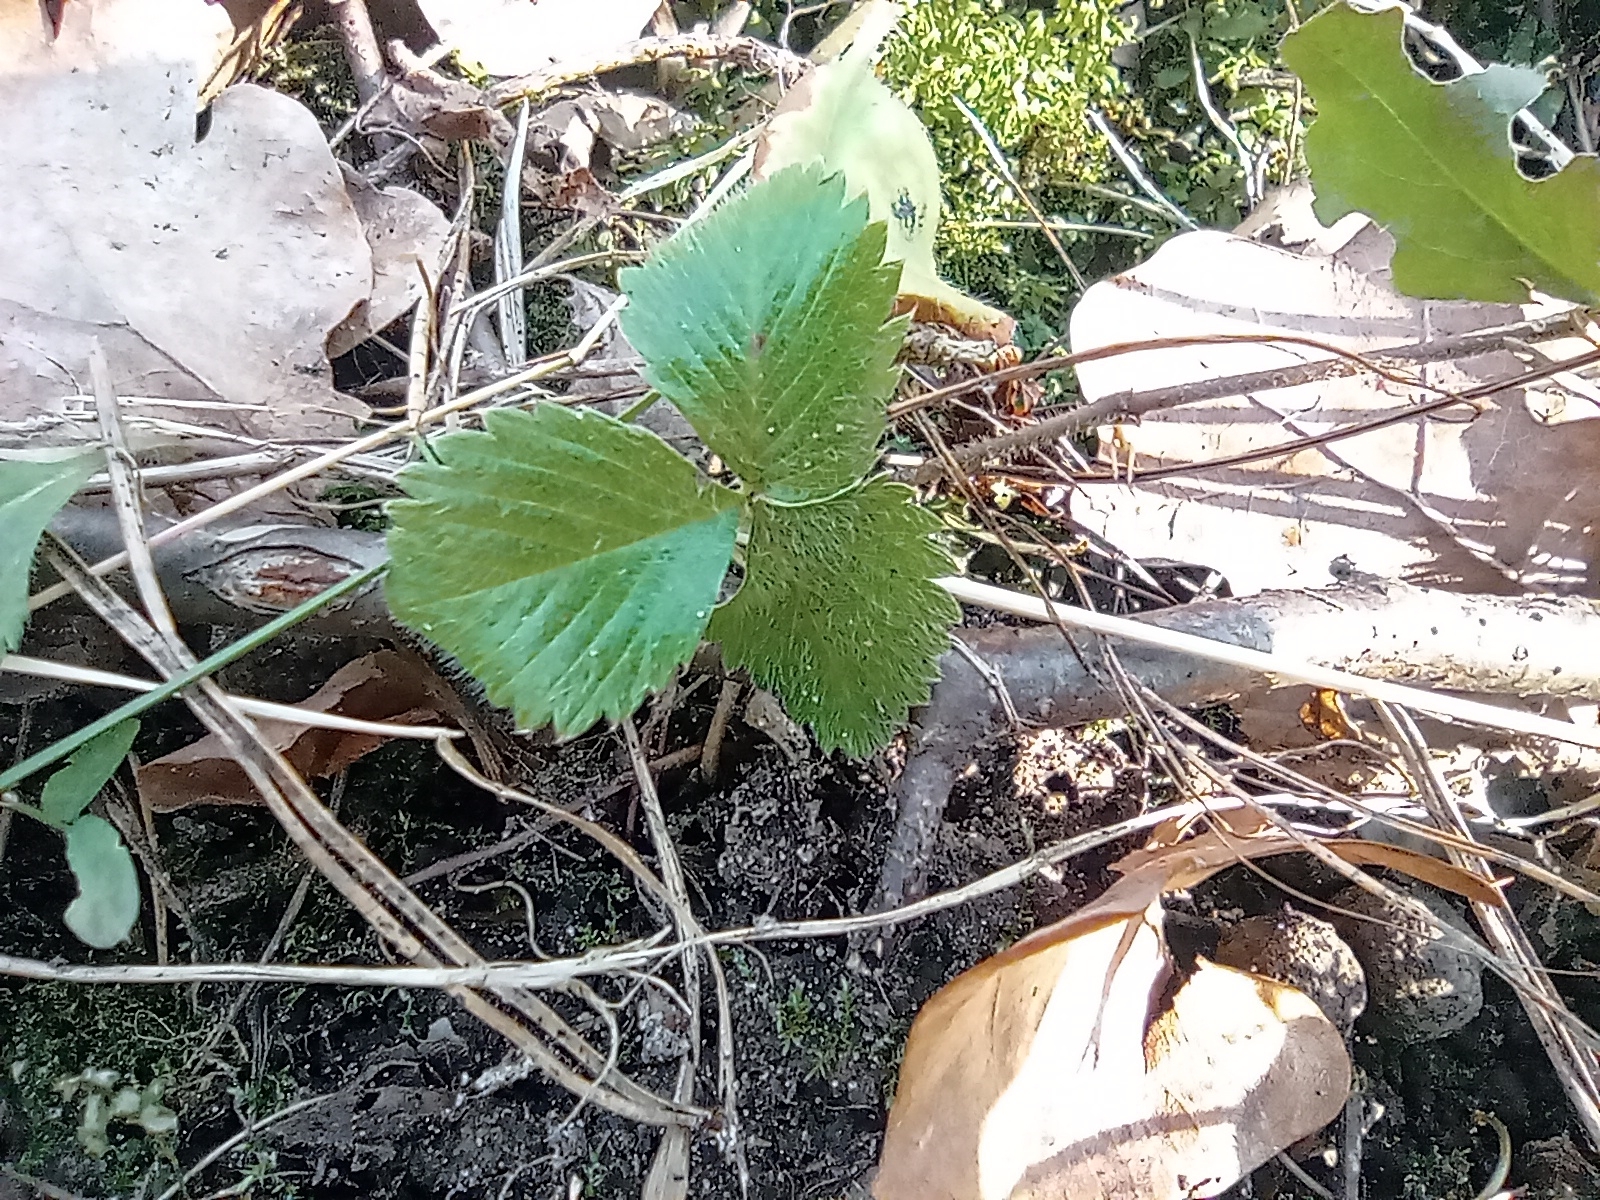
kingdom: Plantae
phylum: Tracheophyta
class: Magnoliopsida
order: Rosales
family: Rosaceae
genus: Fragaria
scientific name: Fragaria vesca
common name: Wild strawberry
